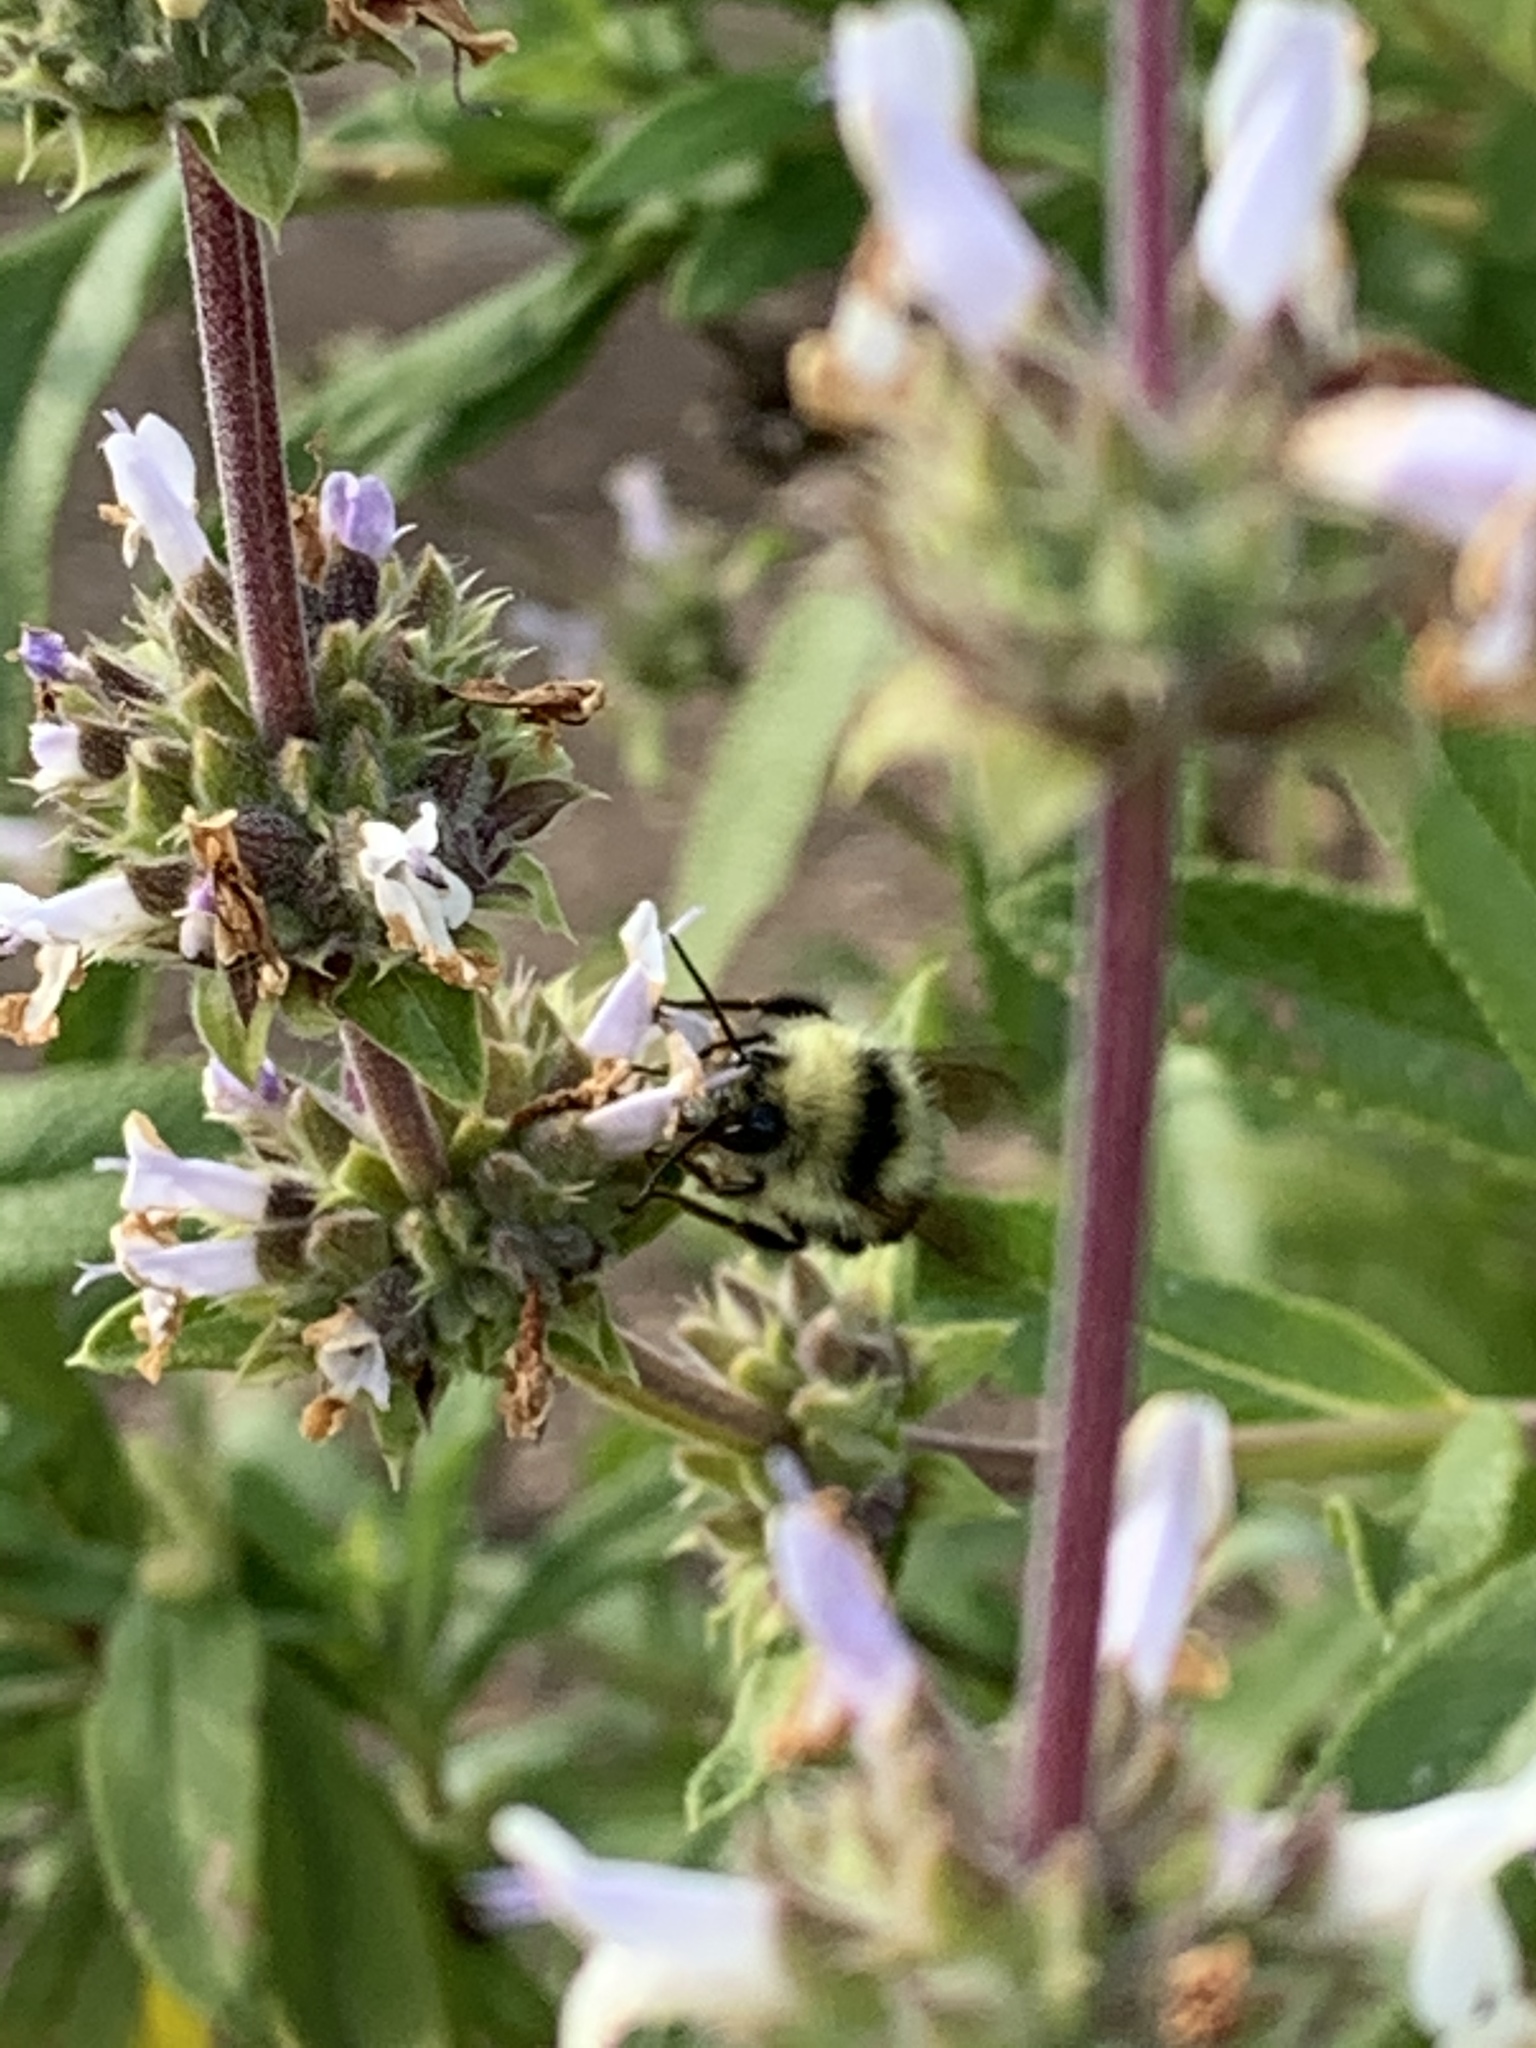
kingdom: Animalia
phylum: Arthropoda
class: Insecta
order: Hymenoptera
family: Apidae
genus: Bombus
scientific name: Bombus melanopygus
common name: Black tail bumble bee
